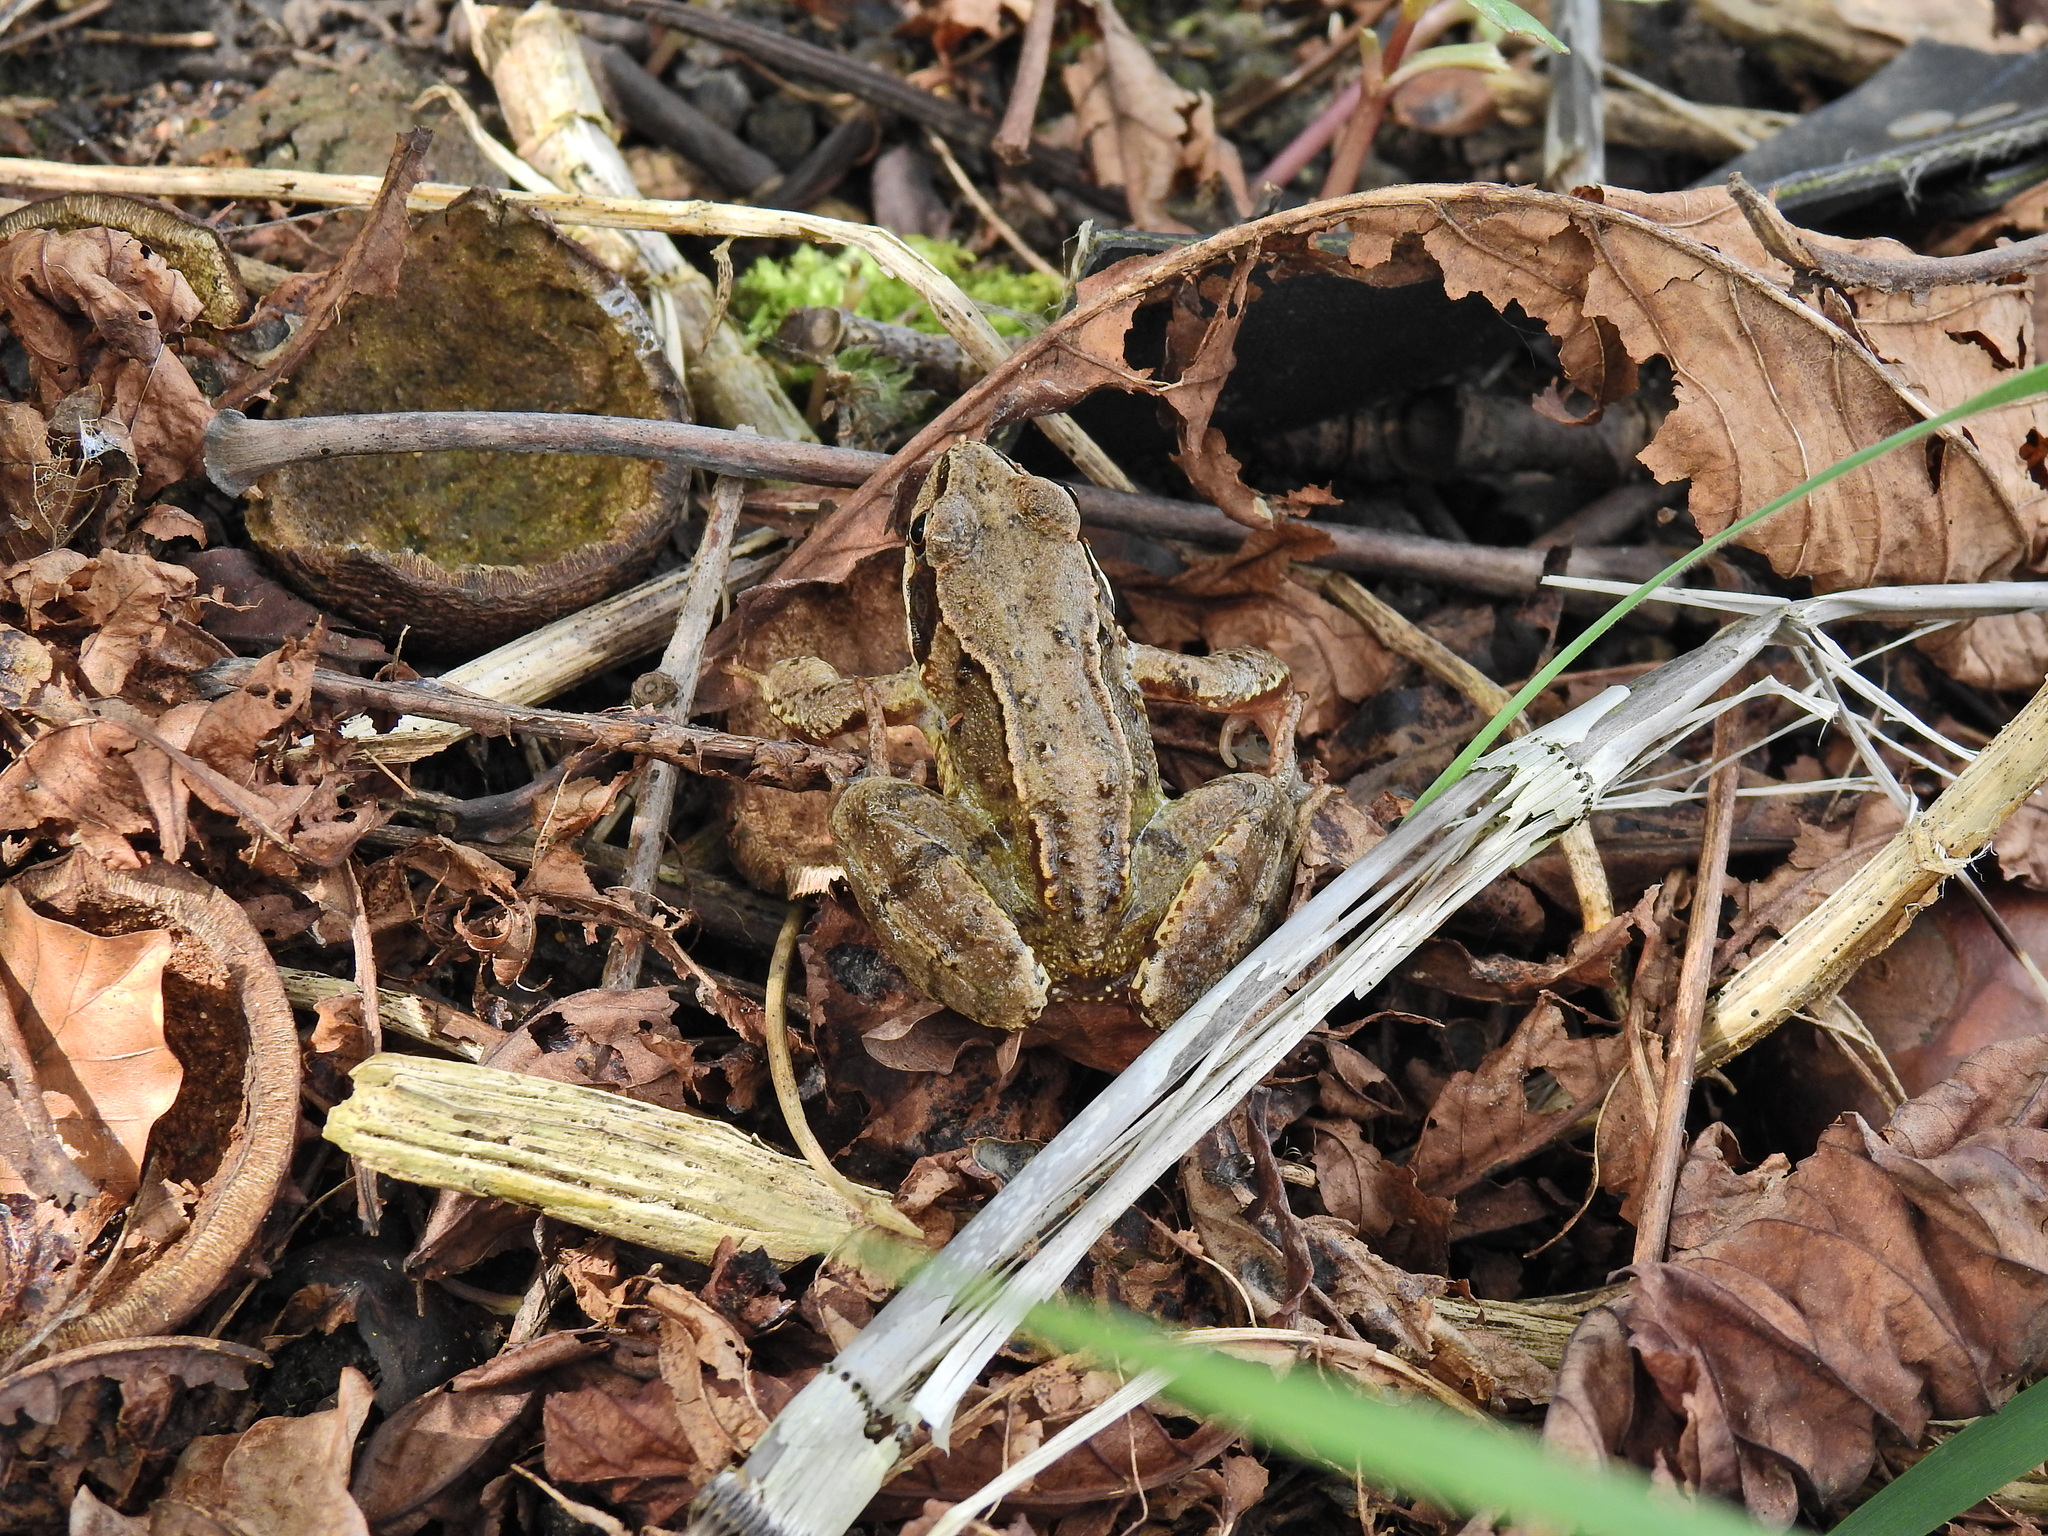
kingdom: Animalia
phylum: Chordata
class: Amphibia
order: Anura
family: Ranidae
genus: Rana
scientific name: Rana temporaria
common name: Common frog
